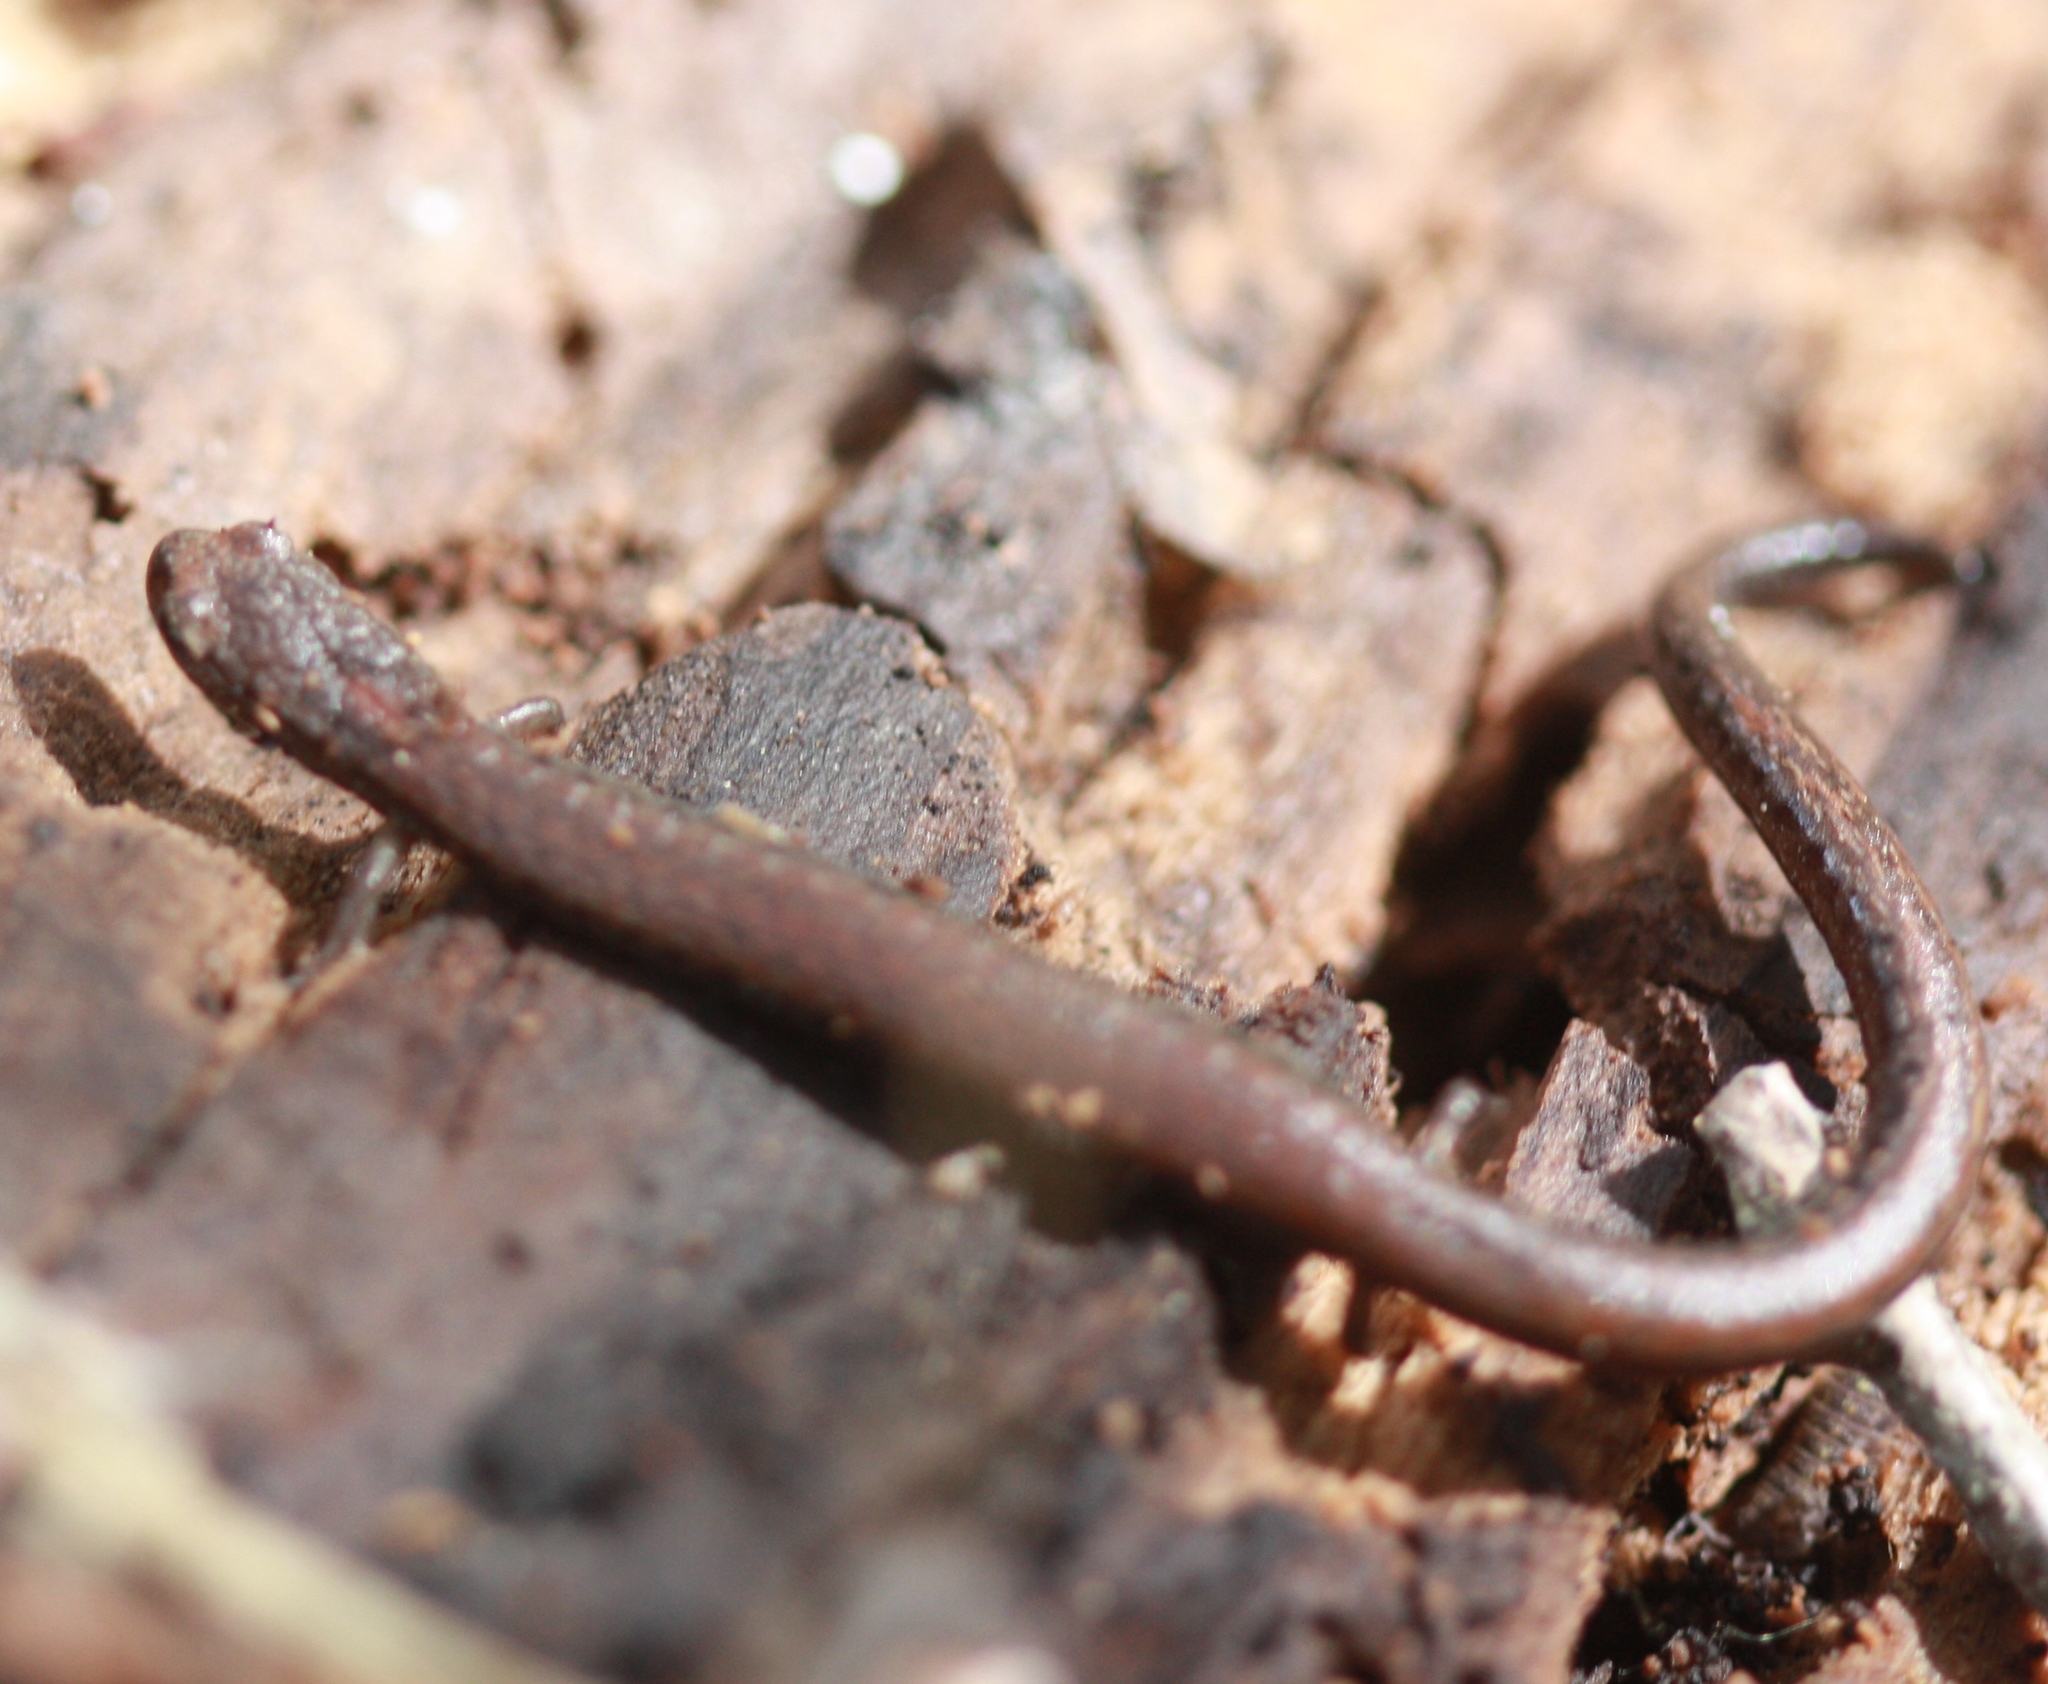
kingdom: Animalia
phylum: Chordata
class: Amphibia
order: Caudata
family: Plethodontidae
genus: Batrachoseps
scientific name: Batrachoseps attenuatus
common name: California slender salamander
